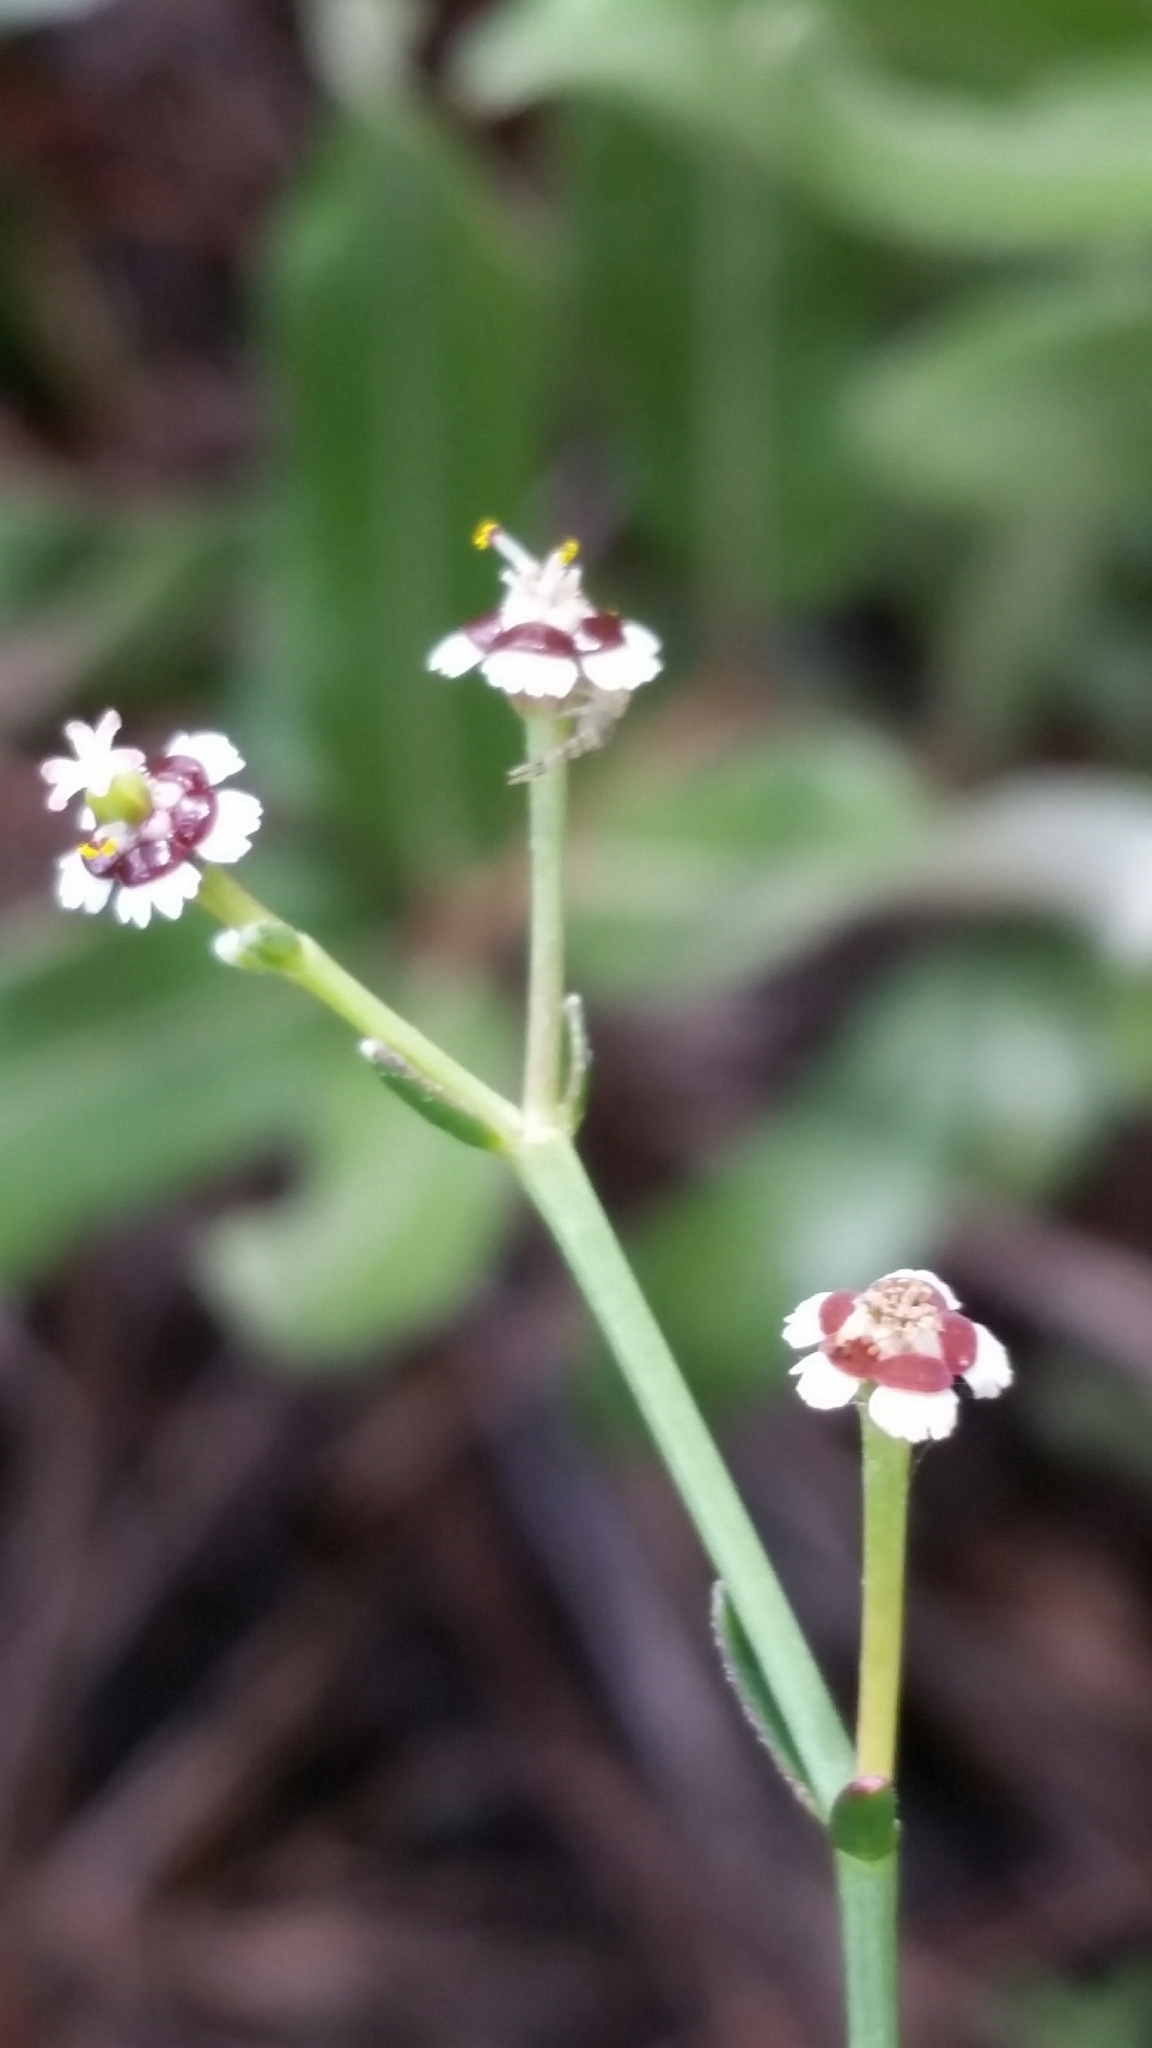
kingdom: Plantae
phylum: Tracheophyta
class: Magnoliopsida
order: Malpighiales
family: Euphorbiaceae
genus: Euphorbia
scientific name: Euphorbia polyphylla
